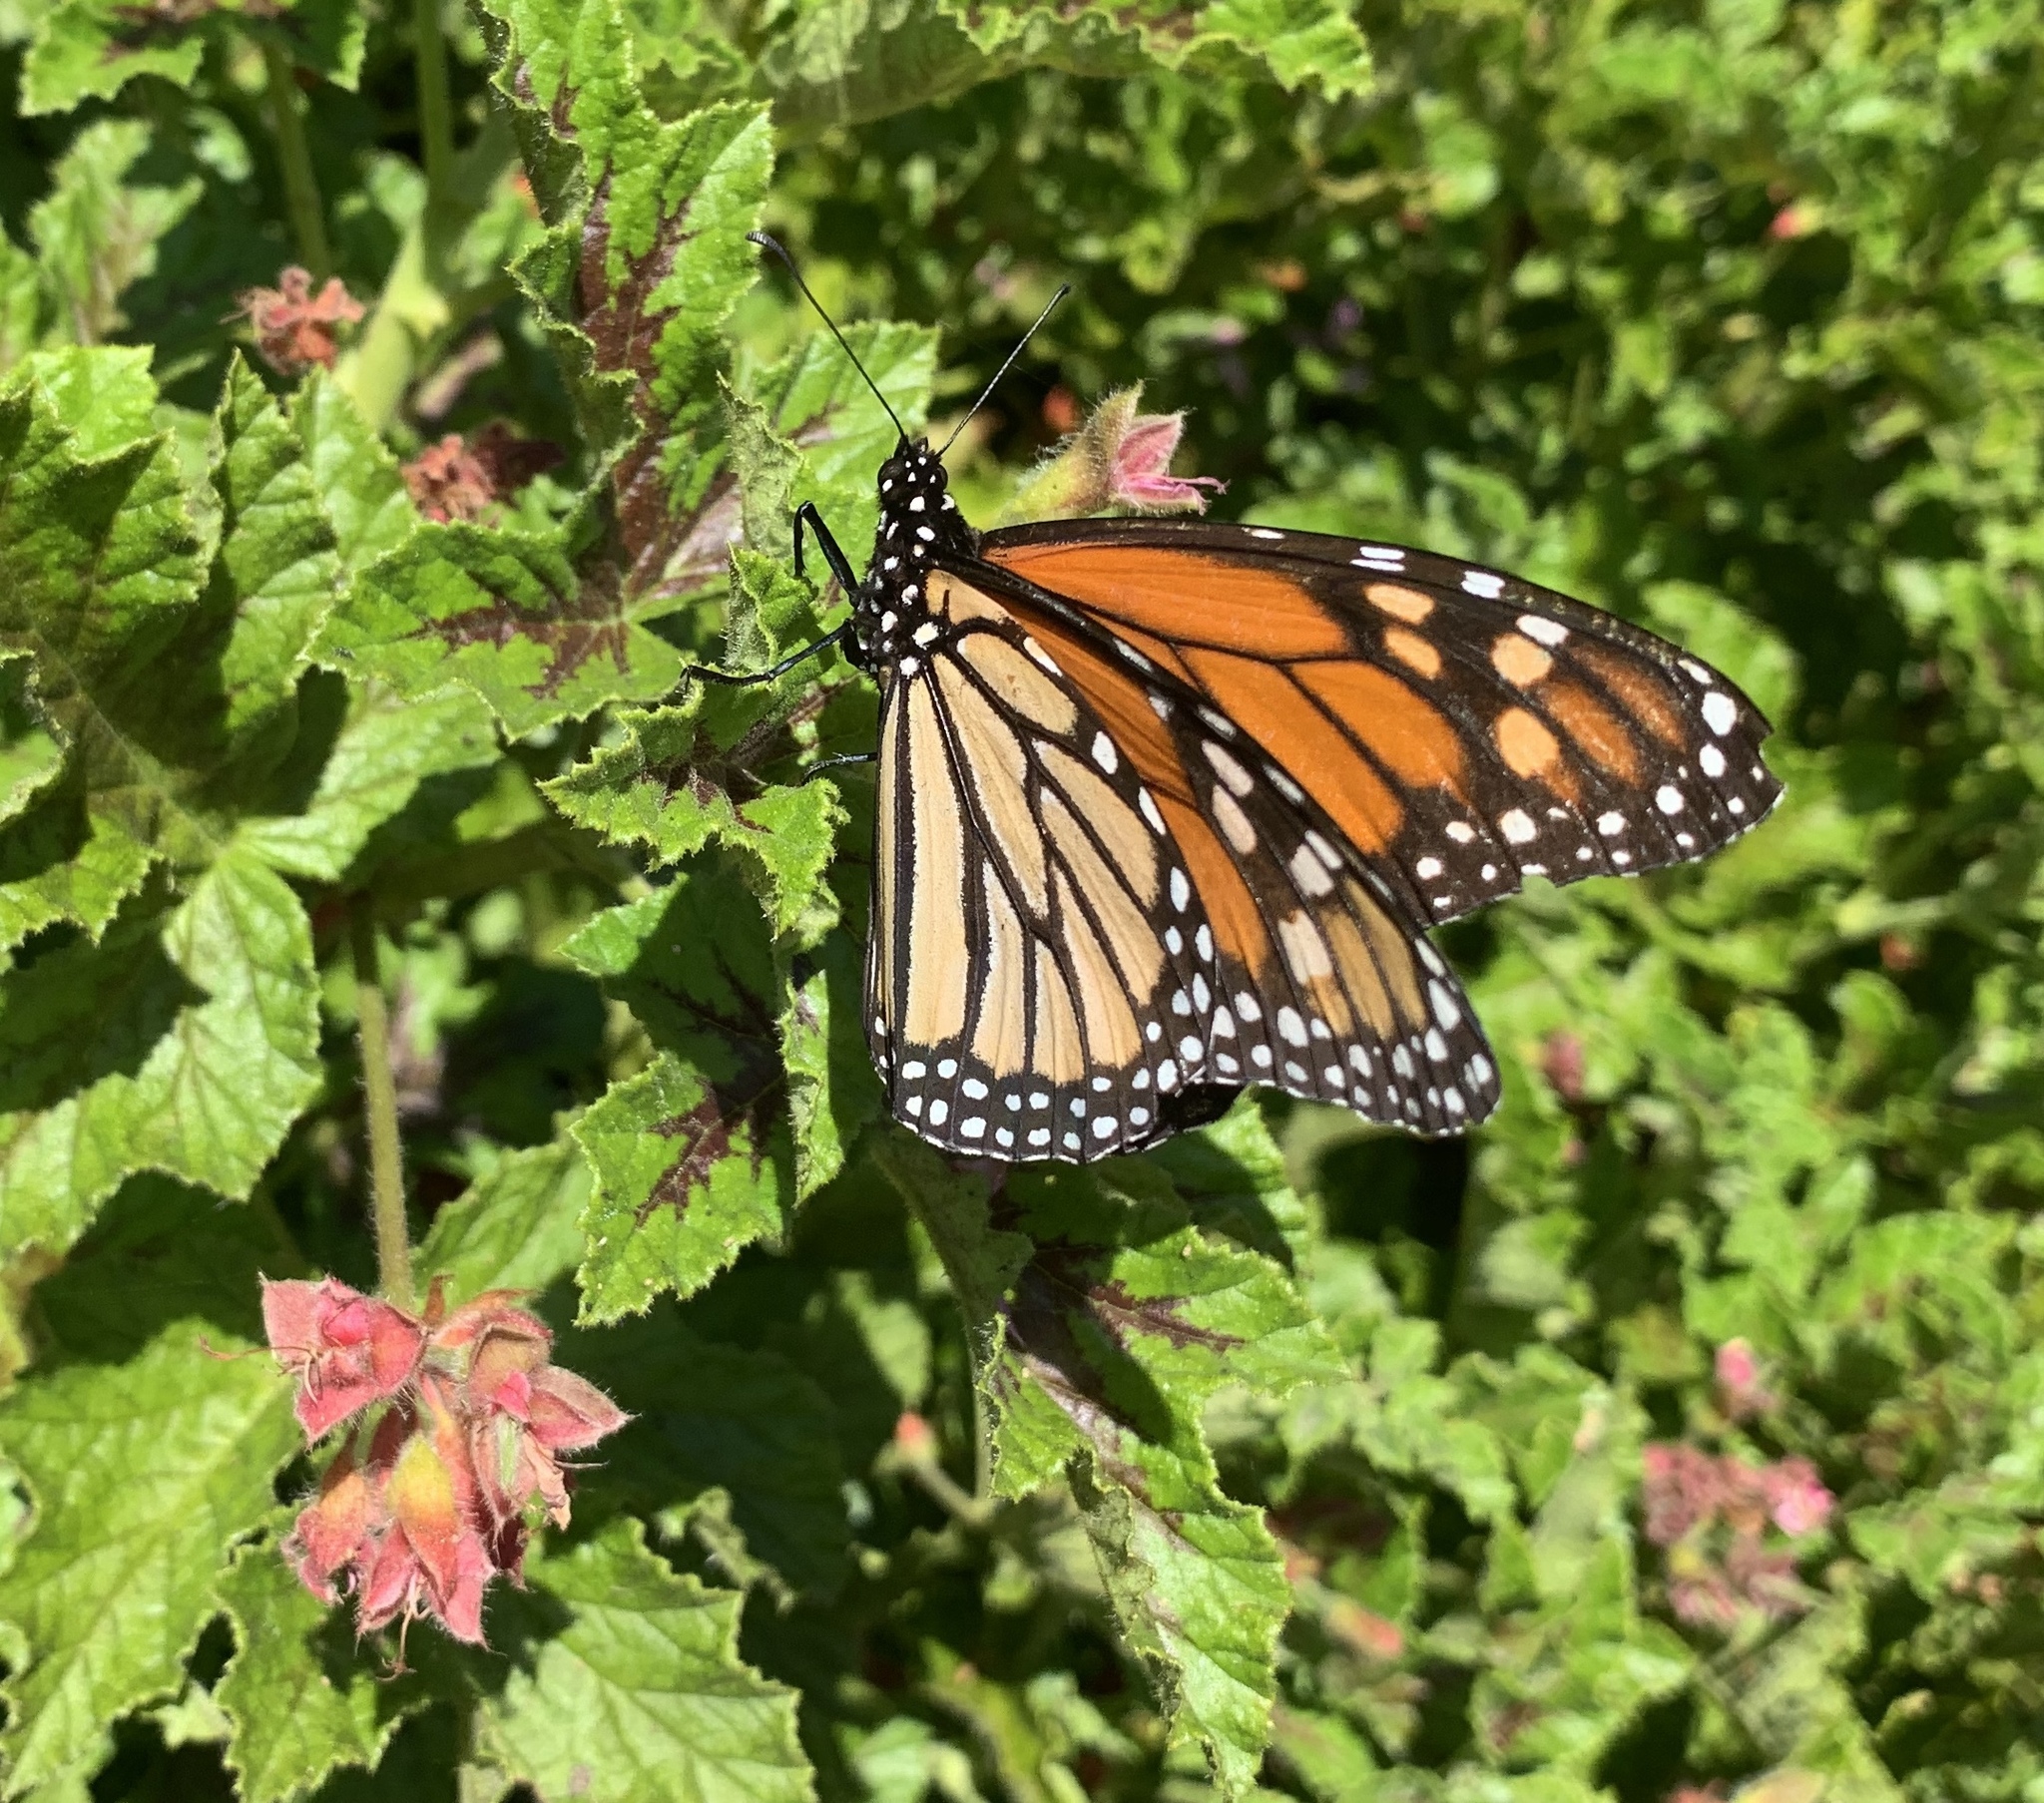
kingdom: Animalia
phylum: Arthropoda
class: Insecta
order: Lepidoptera
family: Nymphalidae
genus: Danaus
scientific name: Danaus plexippus
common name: Monarch
